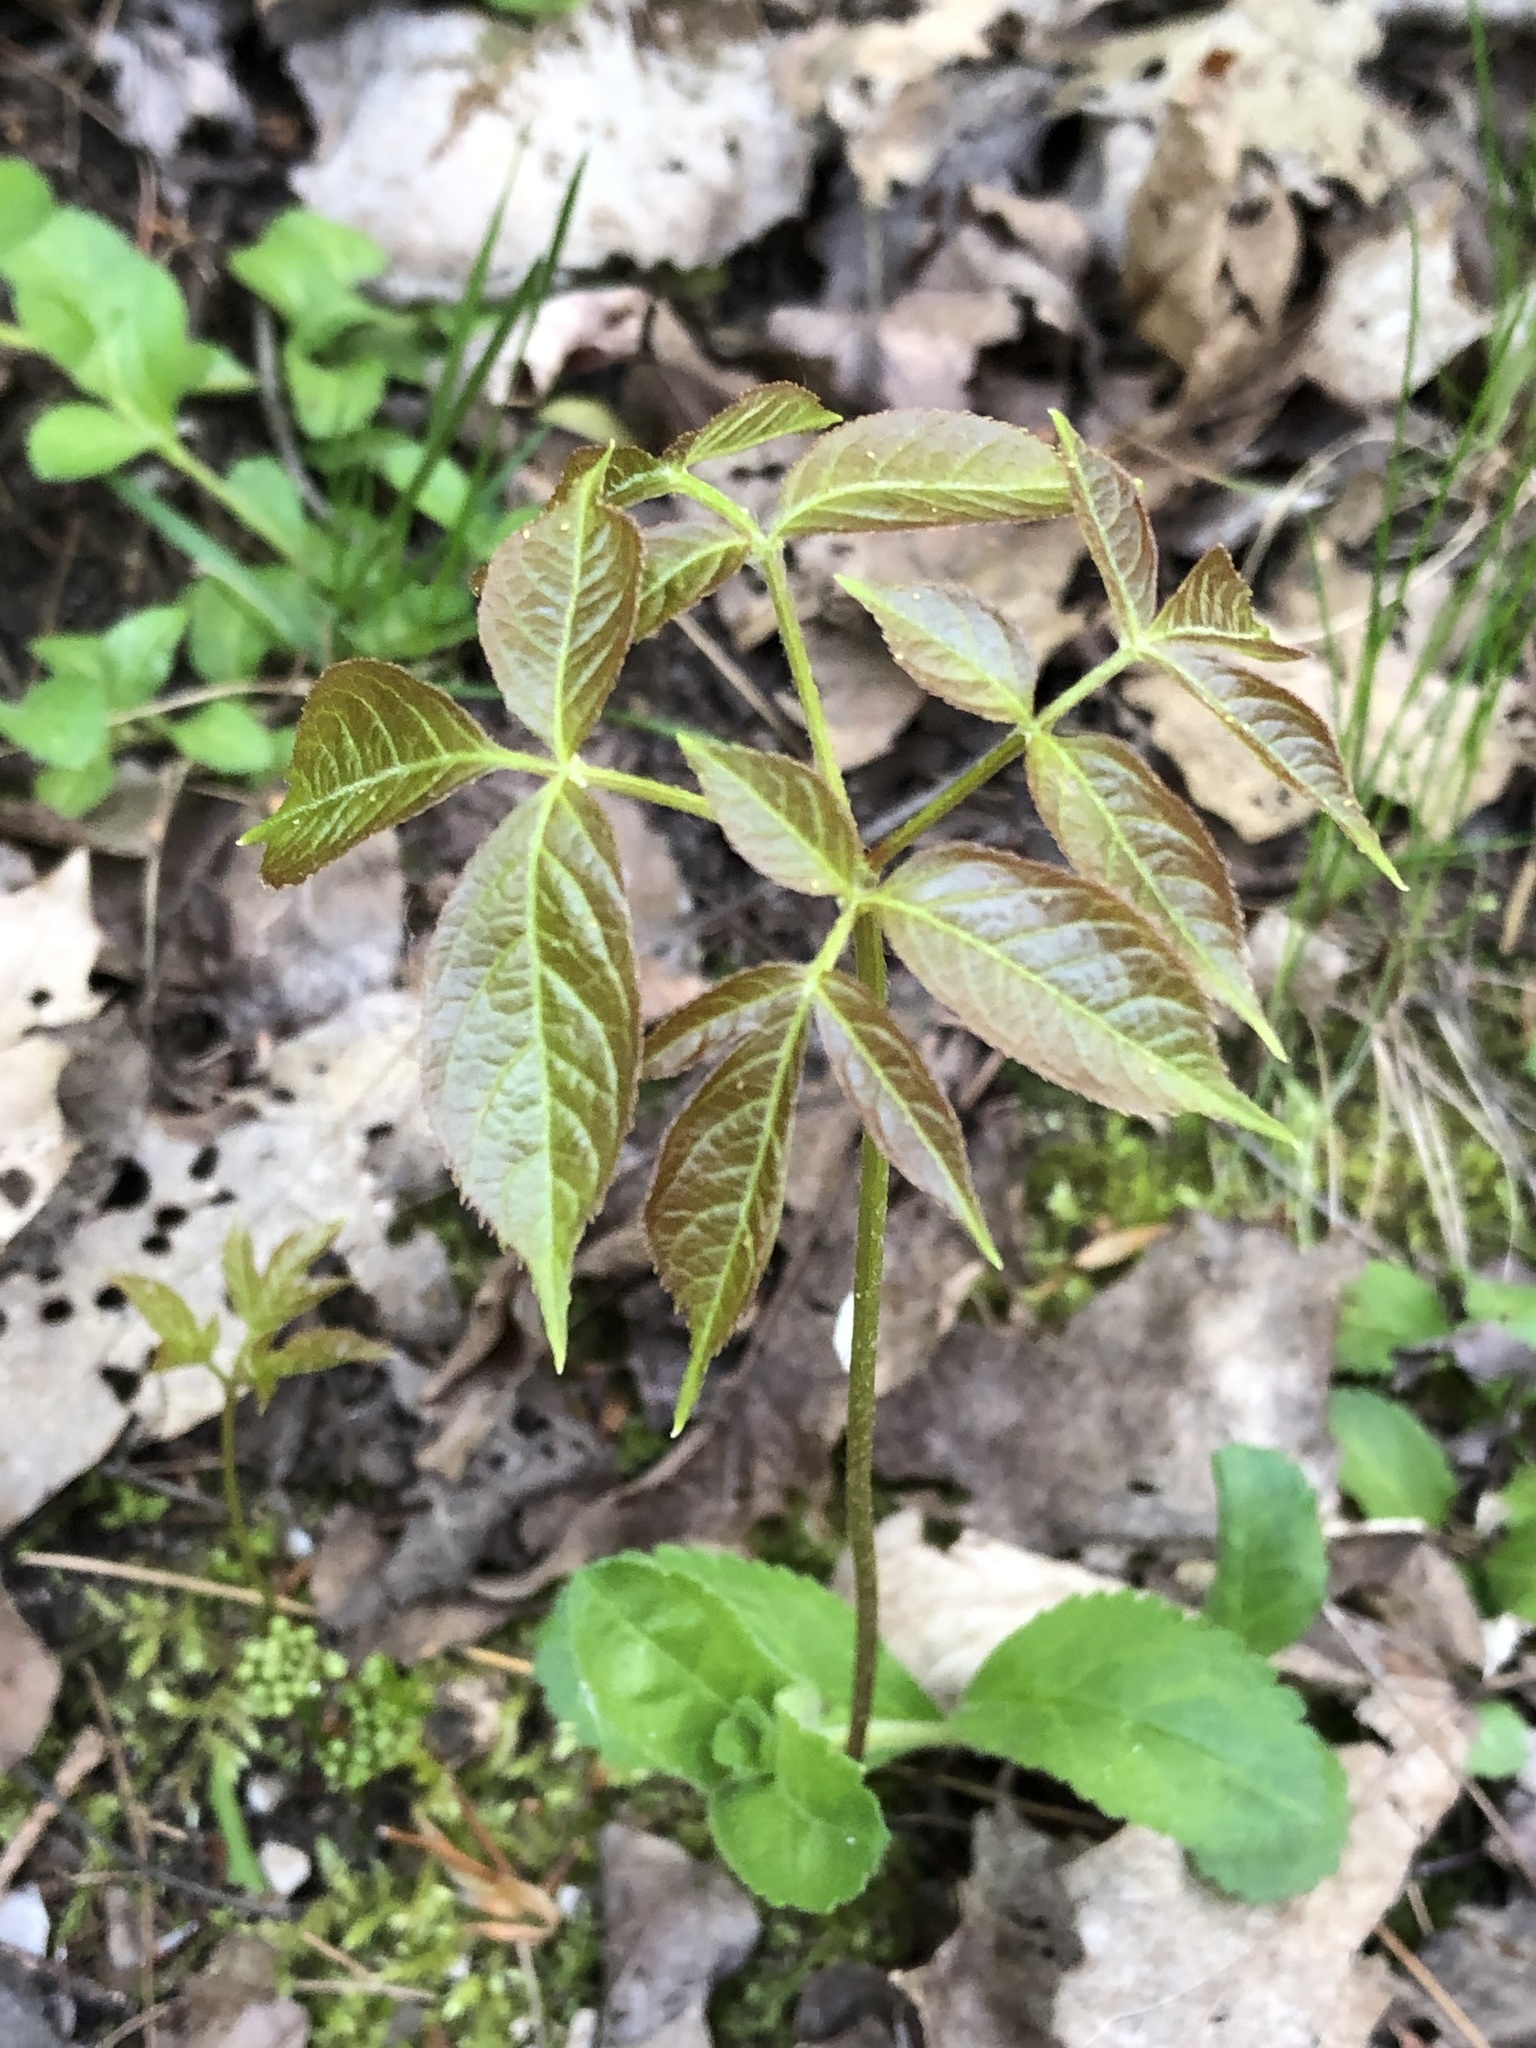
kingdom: Plantae
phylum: Tracheophyta
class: Magnoliopsida
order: Apiales
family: Araliaceae
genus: Aralia
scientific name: Aralia nudicaulis
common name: Wild sarsaparilla
